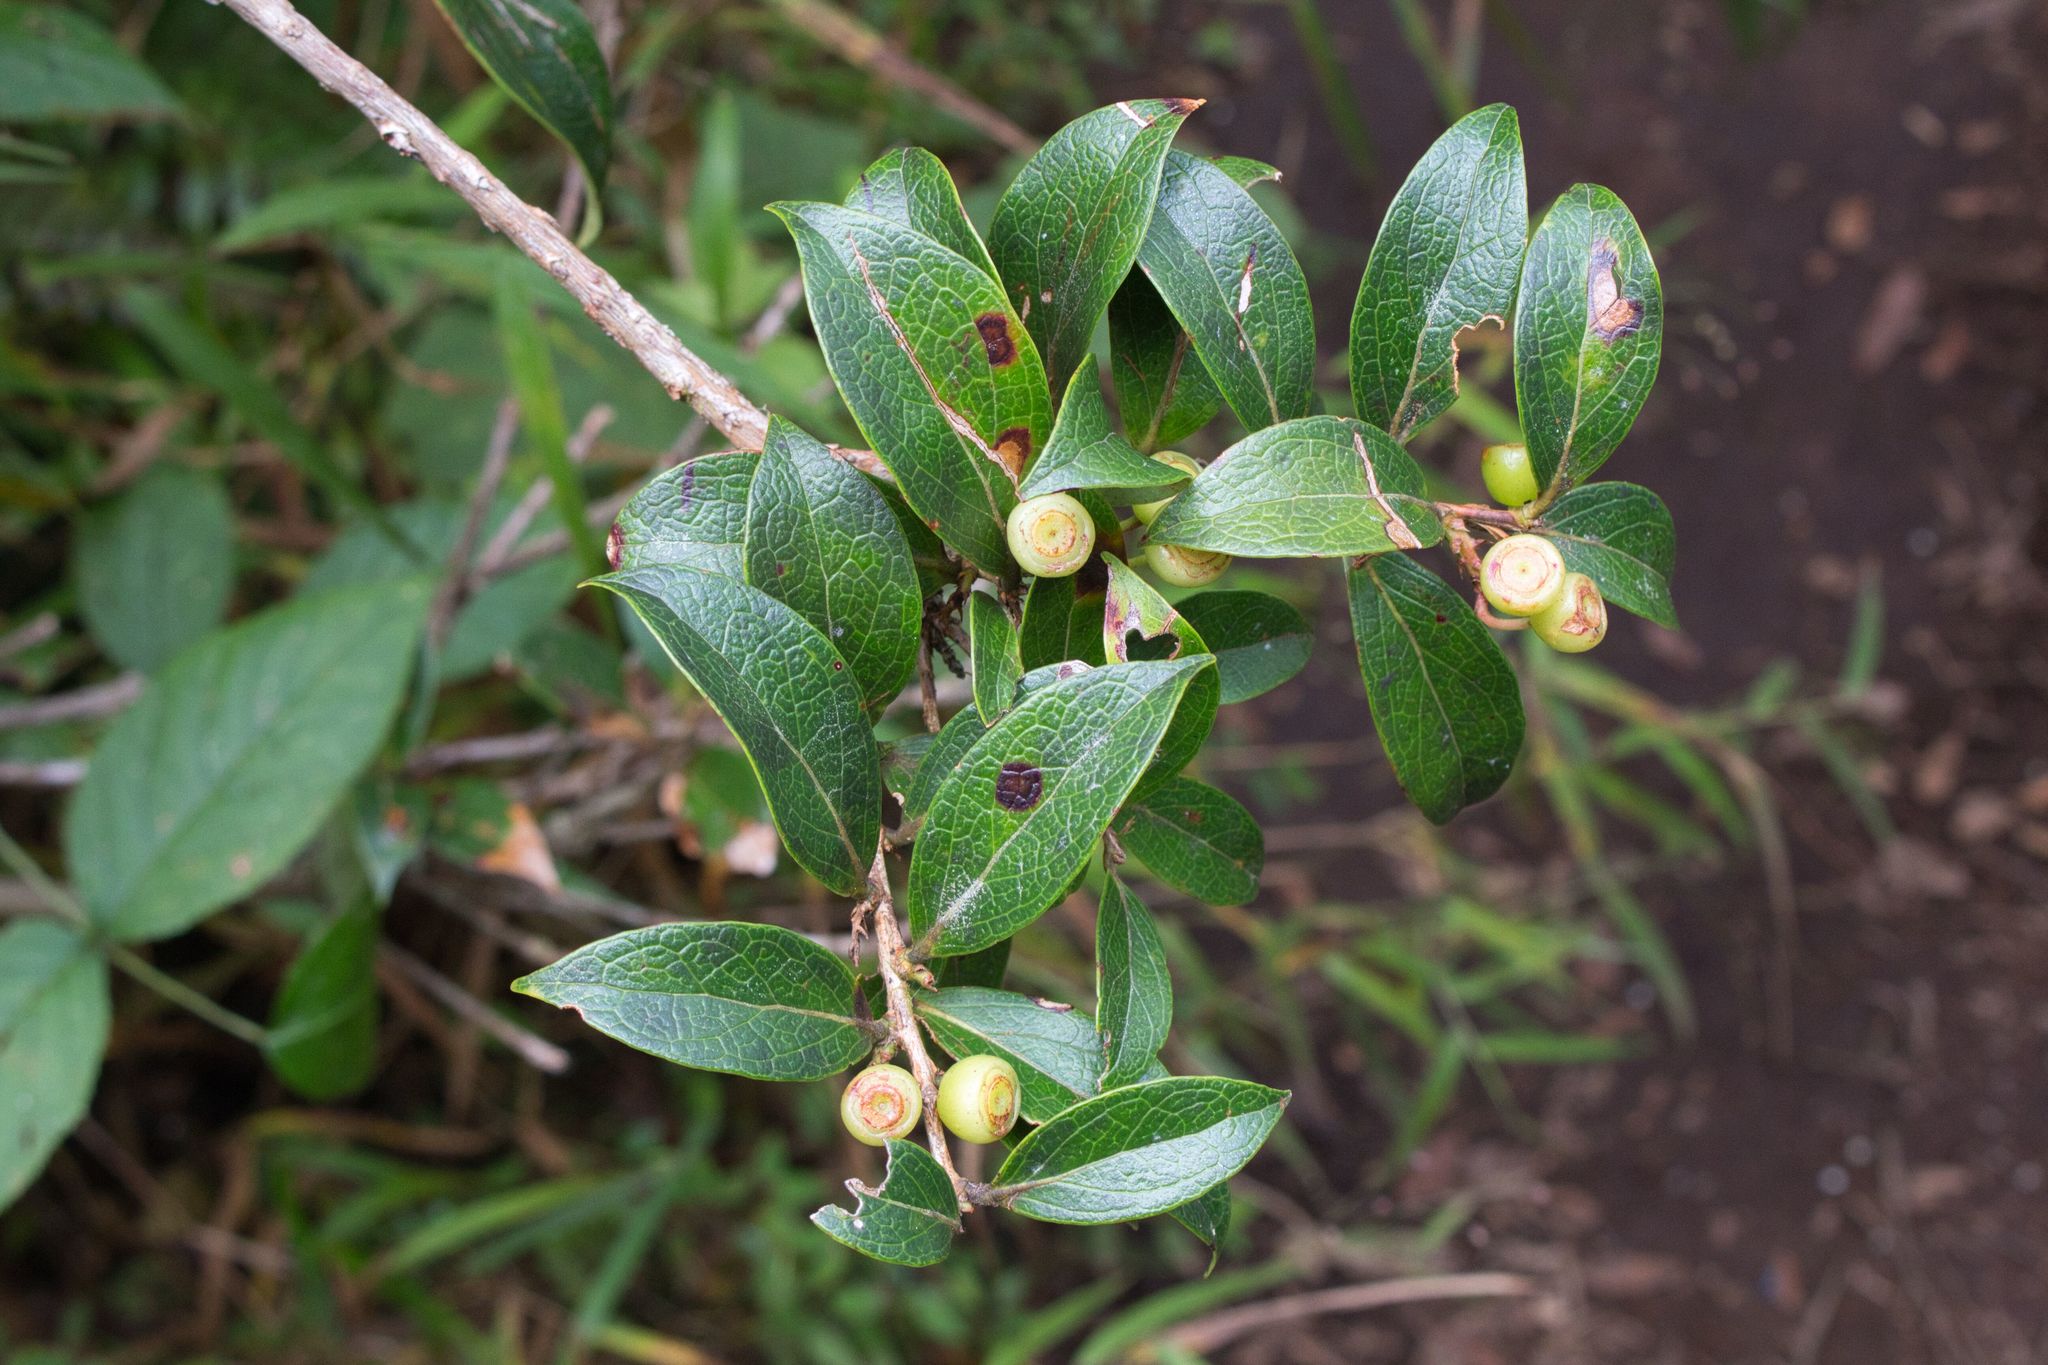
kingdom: Plantae
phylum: Tracheophyta
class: Magnoliopsida
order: Ericales
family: Ericaceae
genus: Symphysia
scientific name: Symphysia poasana
